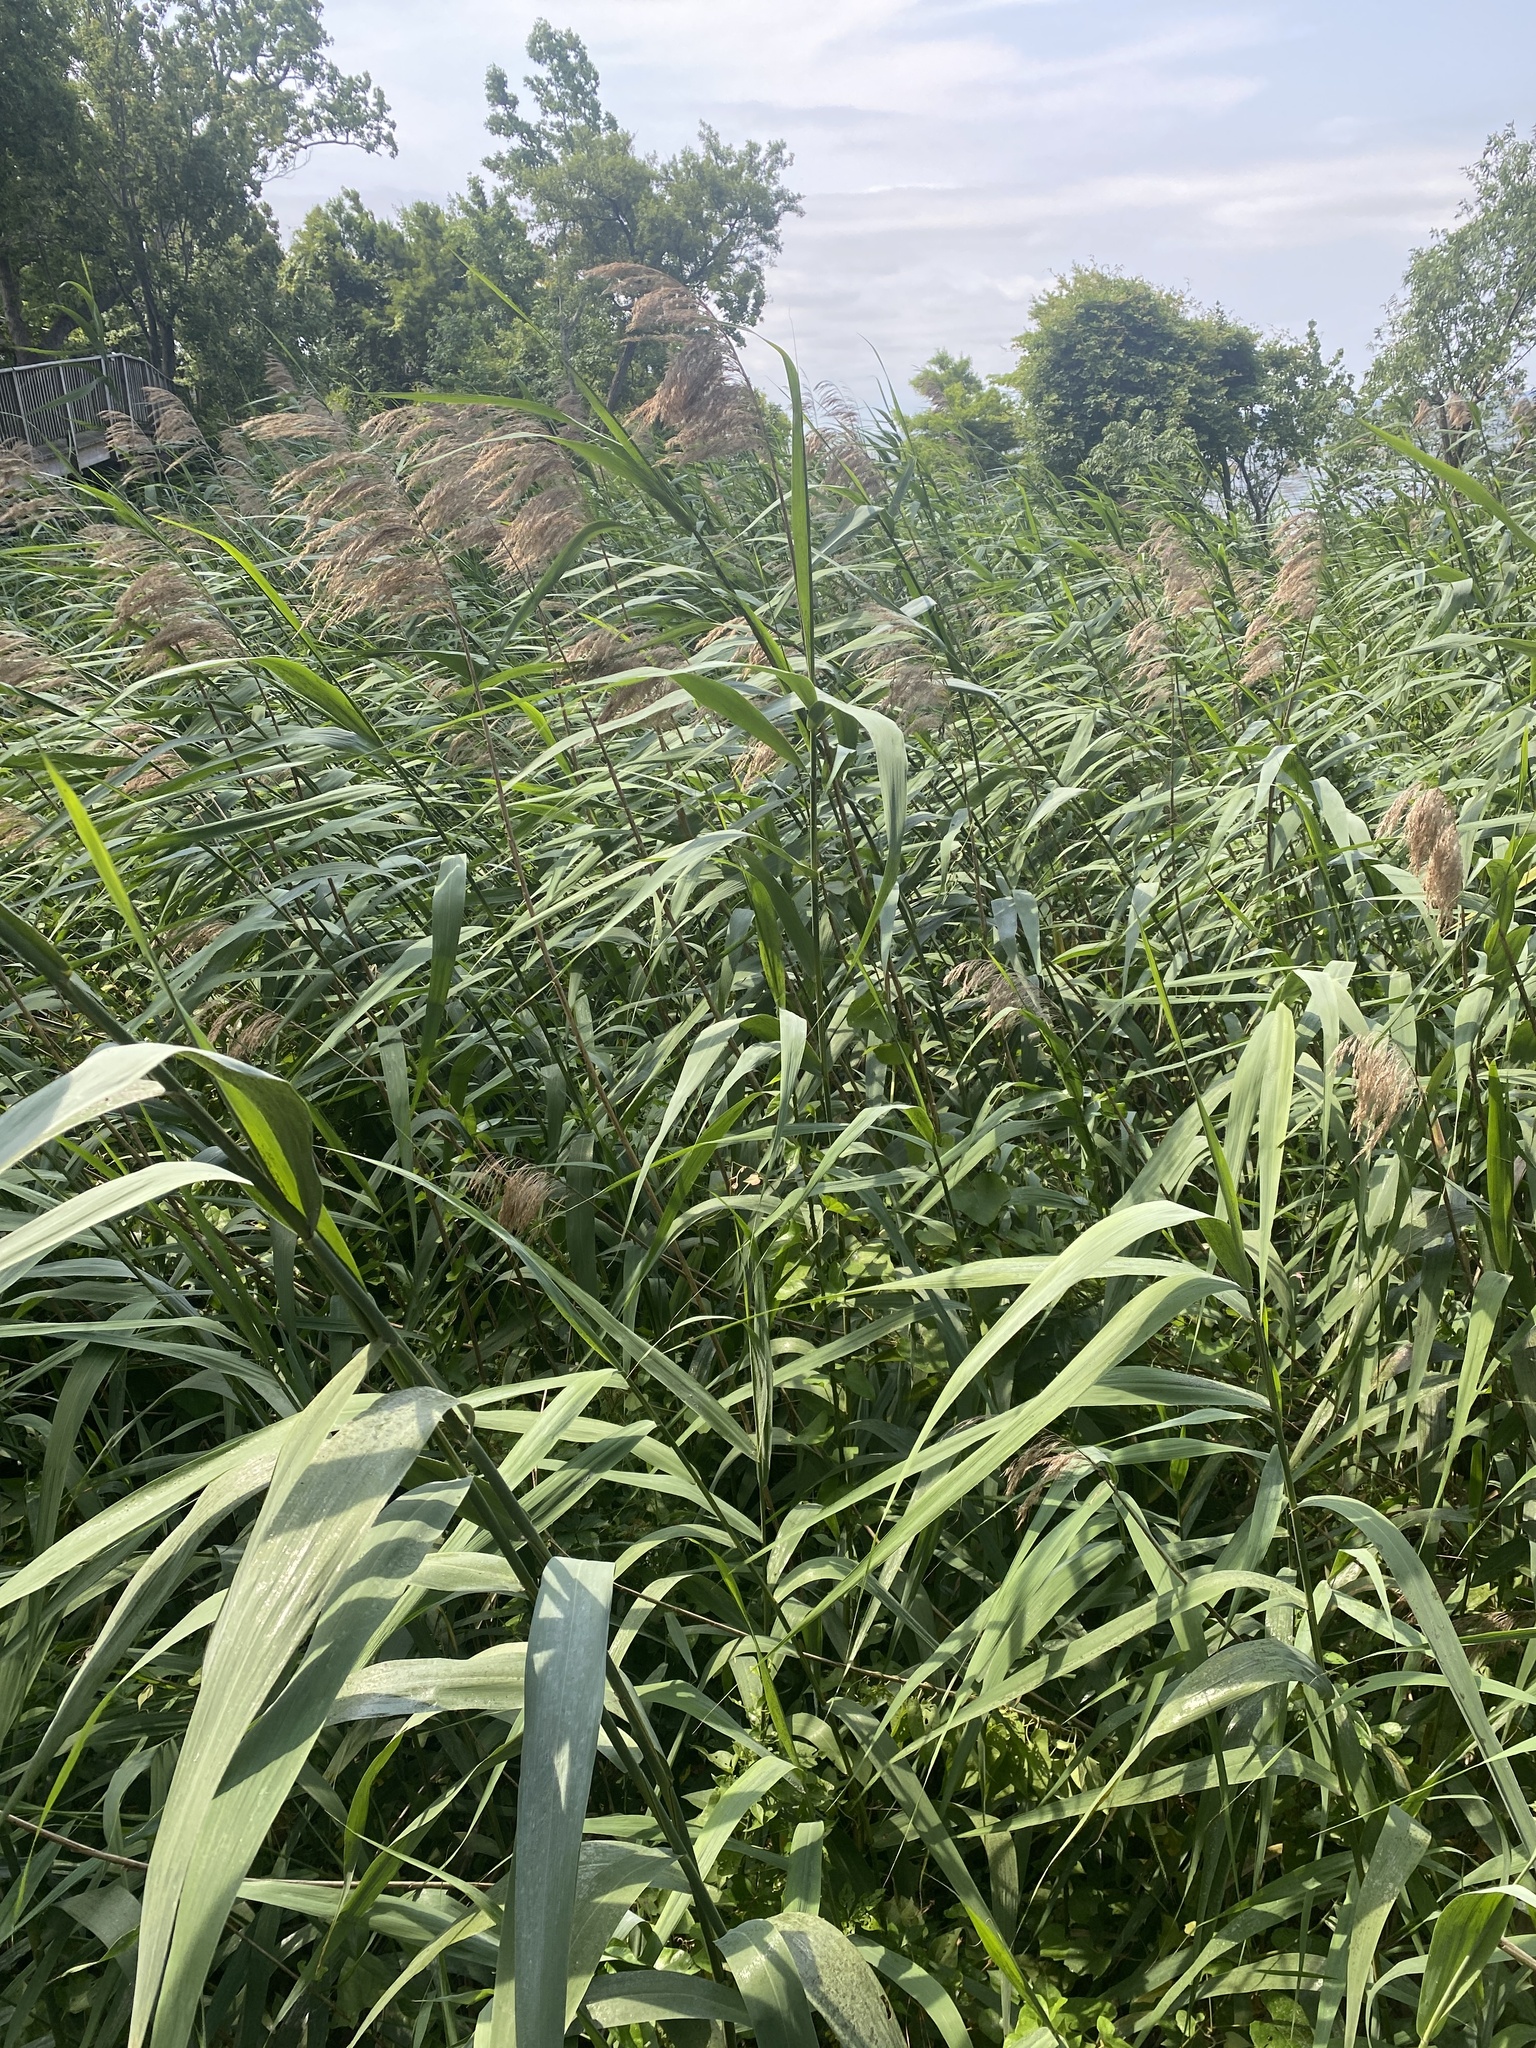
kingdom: Plantae
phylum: Tracheophyta
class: Liliopsida
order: Poales
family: Poaceae
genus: Phragmites
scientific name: Phragmites australis
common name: Common reed
